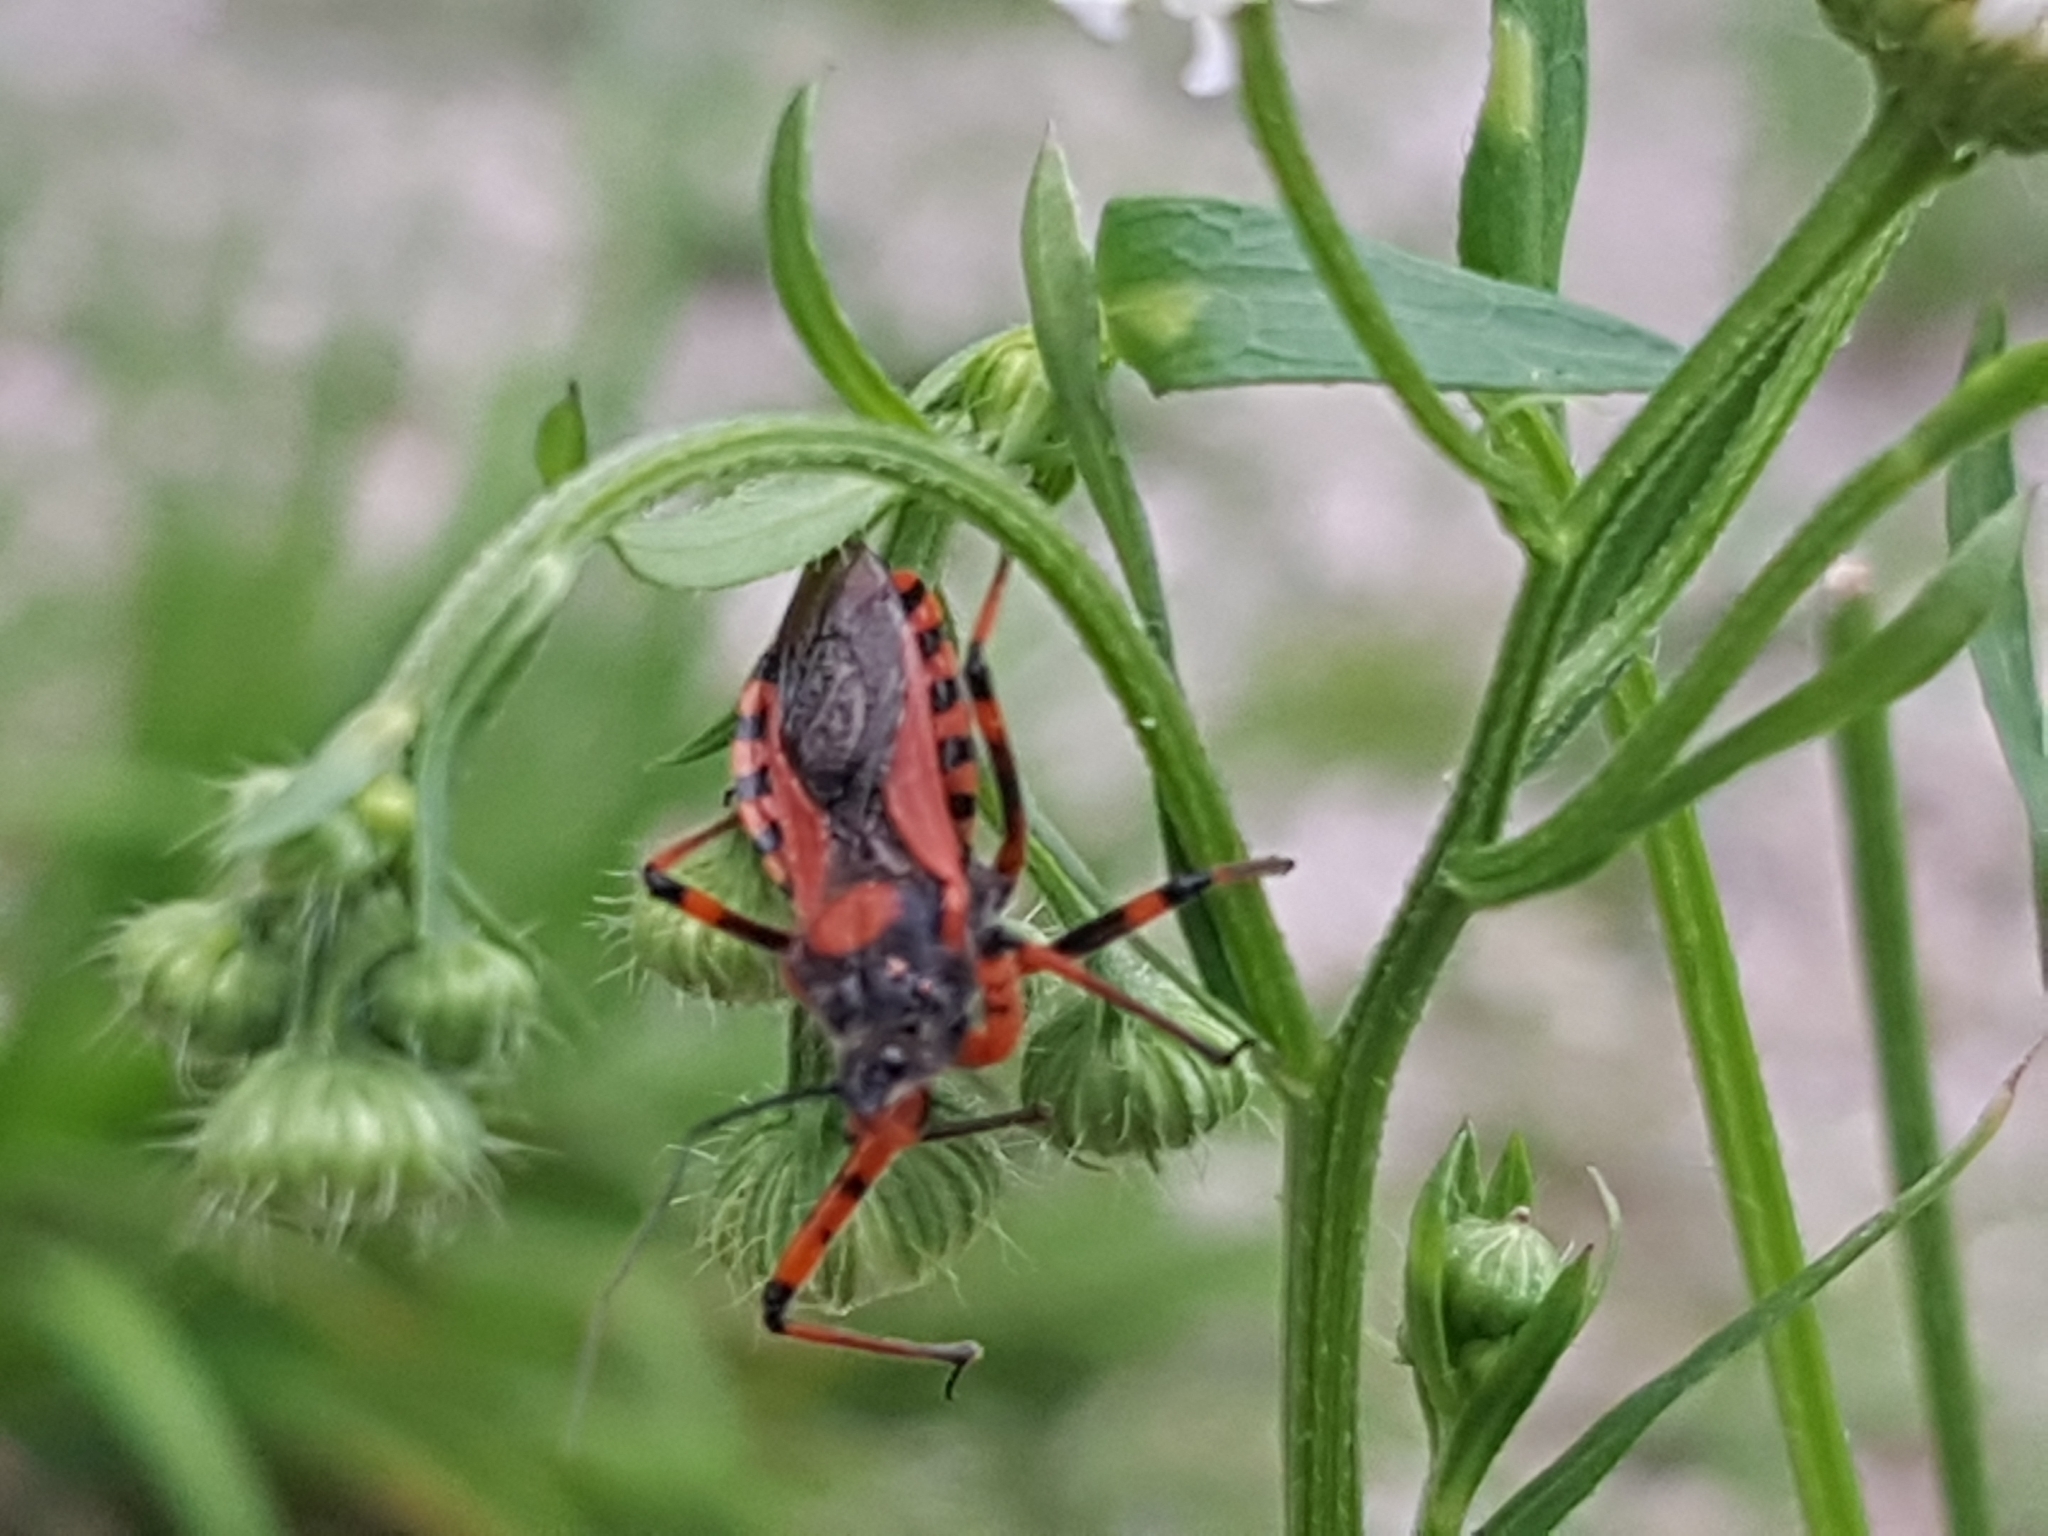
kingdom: Animalia
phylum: Arthropoda
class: Insecta
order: Hemiptera
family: Reduviidae
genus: Rhynocoris
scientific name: Rhynocoris iracundus
